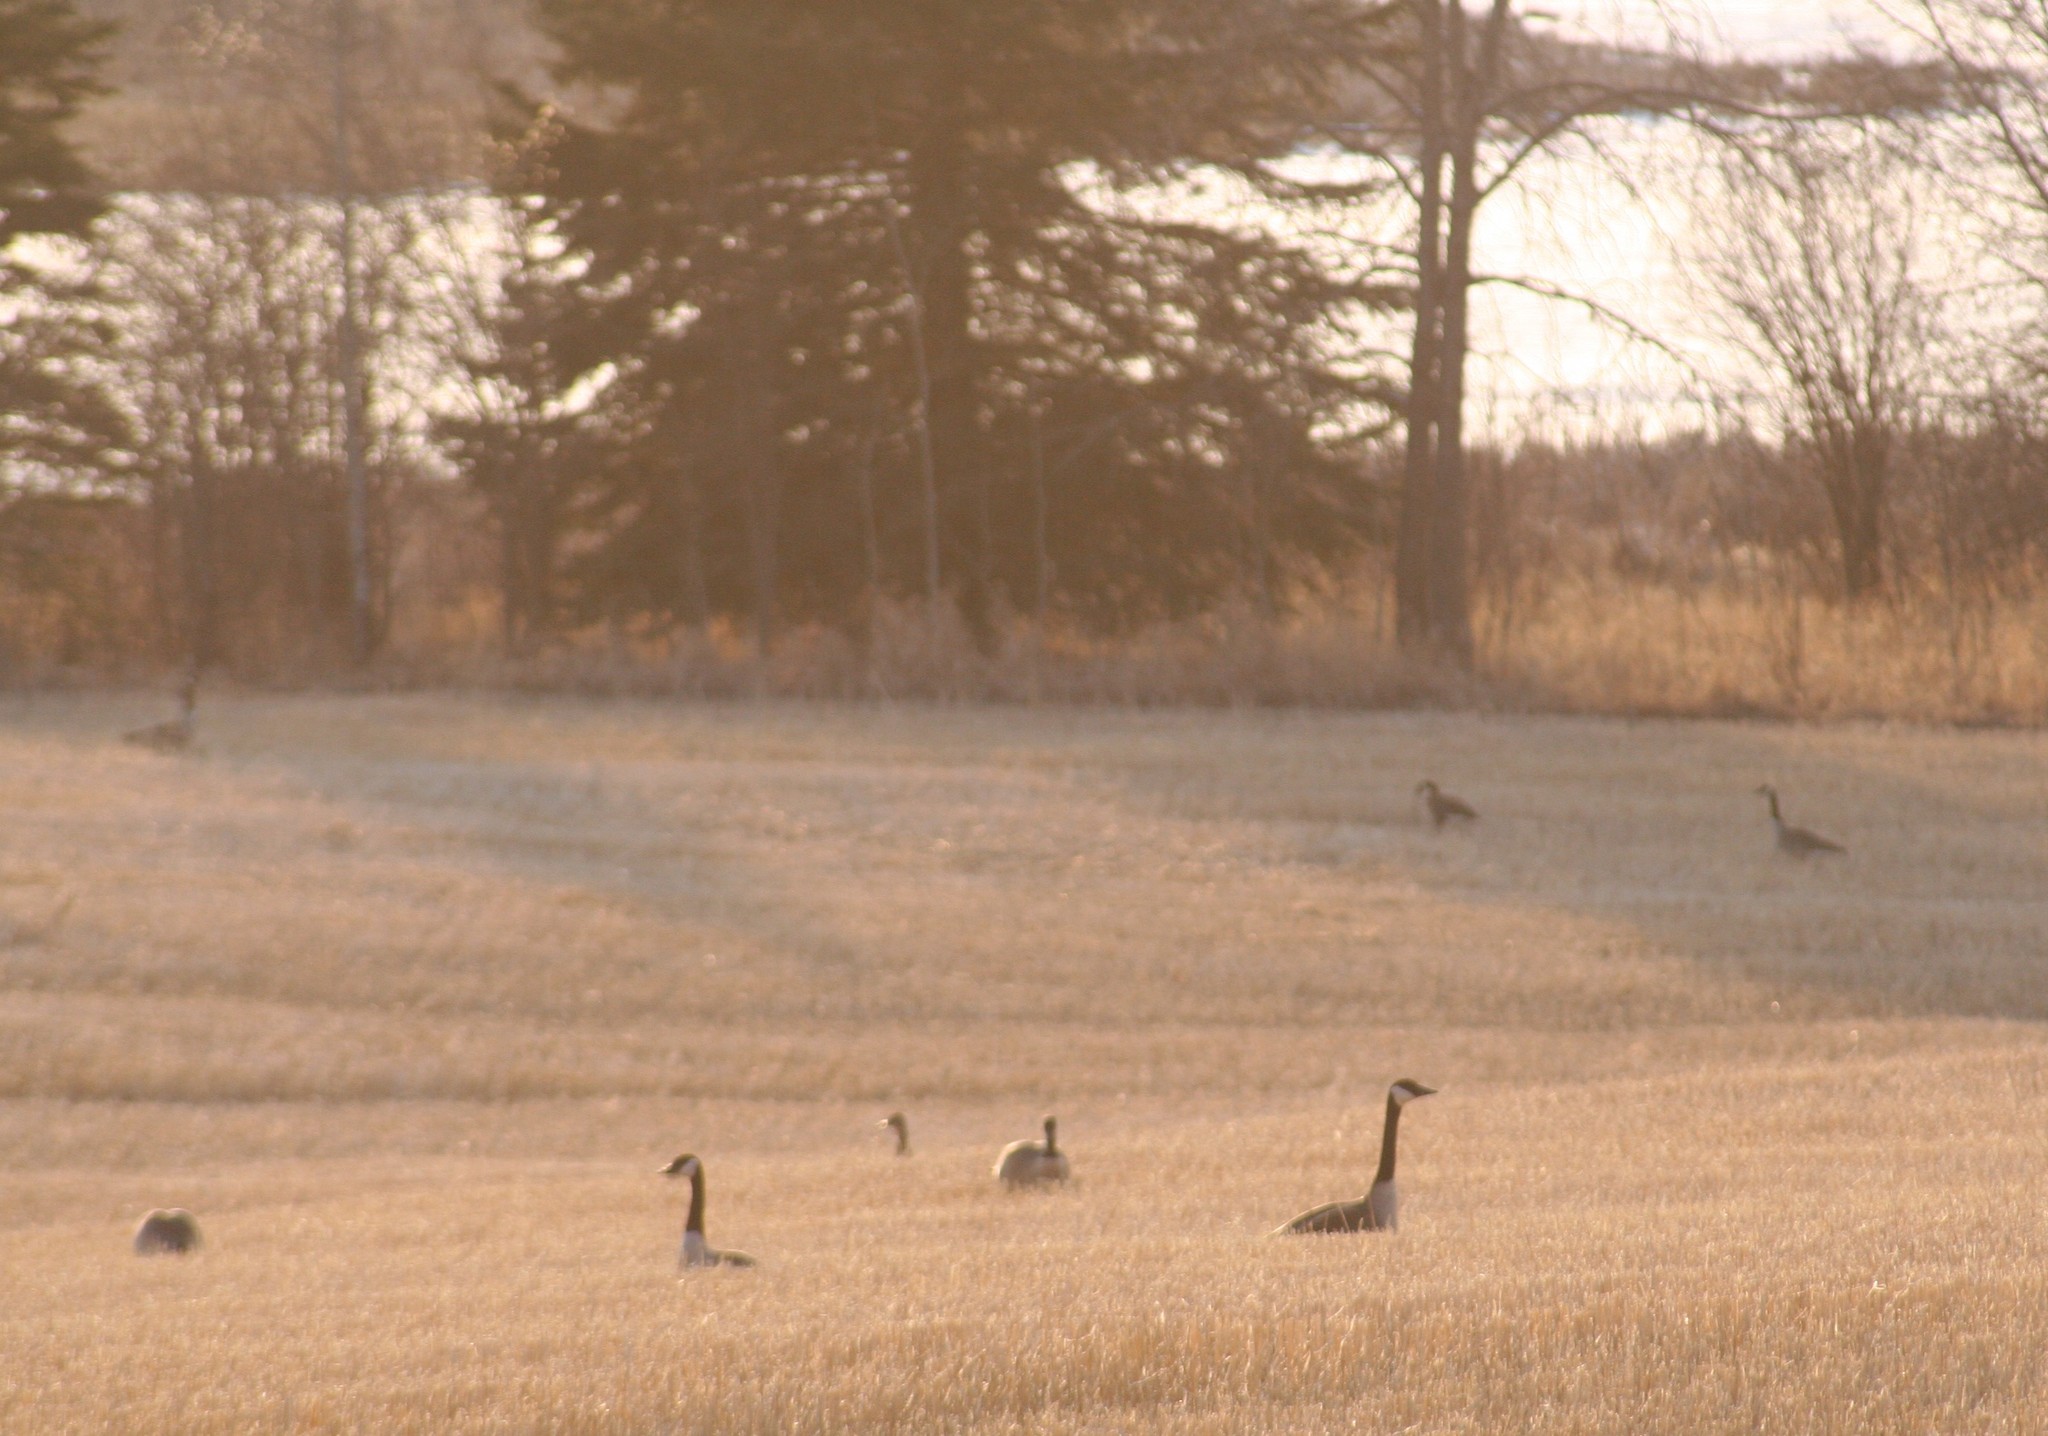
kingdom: Animalia
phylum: Chordata
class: Aves
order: Anseriformes
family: Anatidae
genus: Branta
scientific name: Branta canadensis
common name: Canada goose
